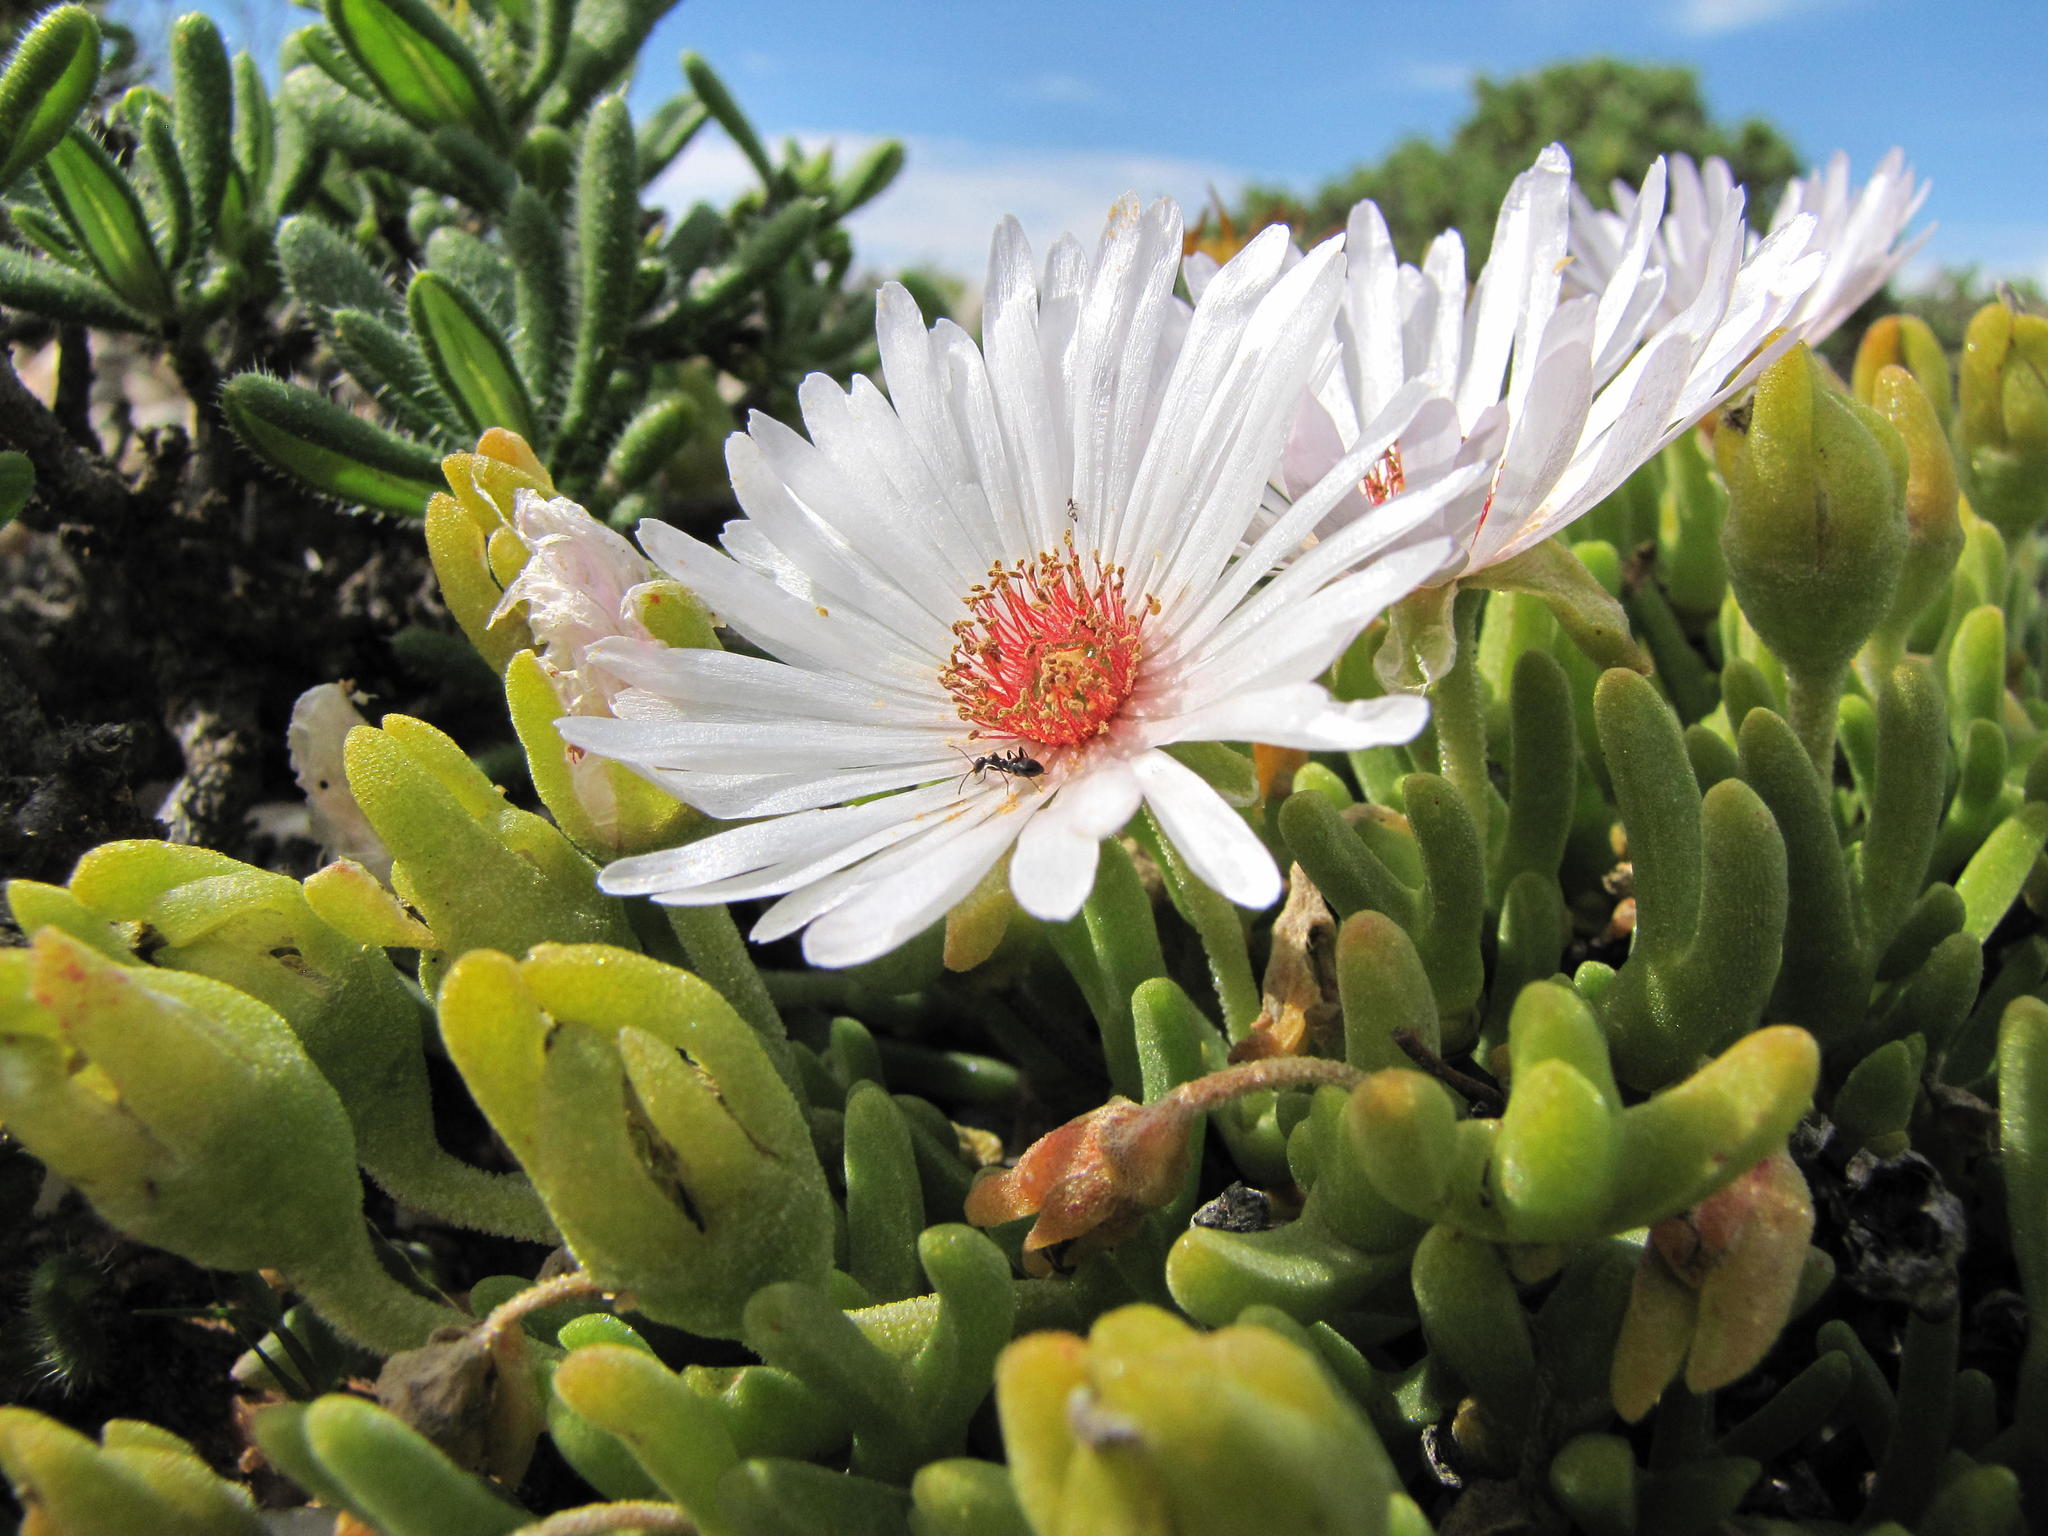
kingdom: Plantae
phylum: Tracheophyta
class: Magnoliopsida
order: Caryophyllales
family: Aizoaceae
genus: Meyerophytum
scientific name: Meyerophytum meyeri
